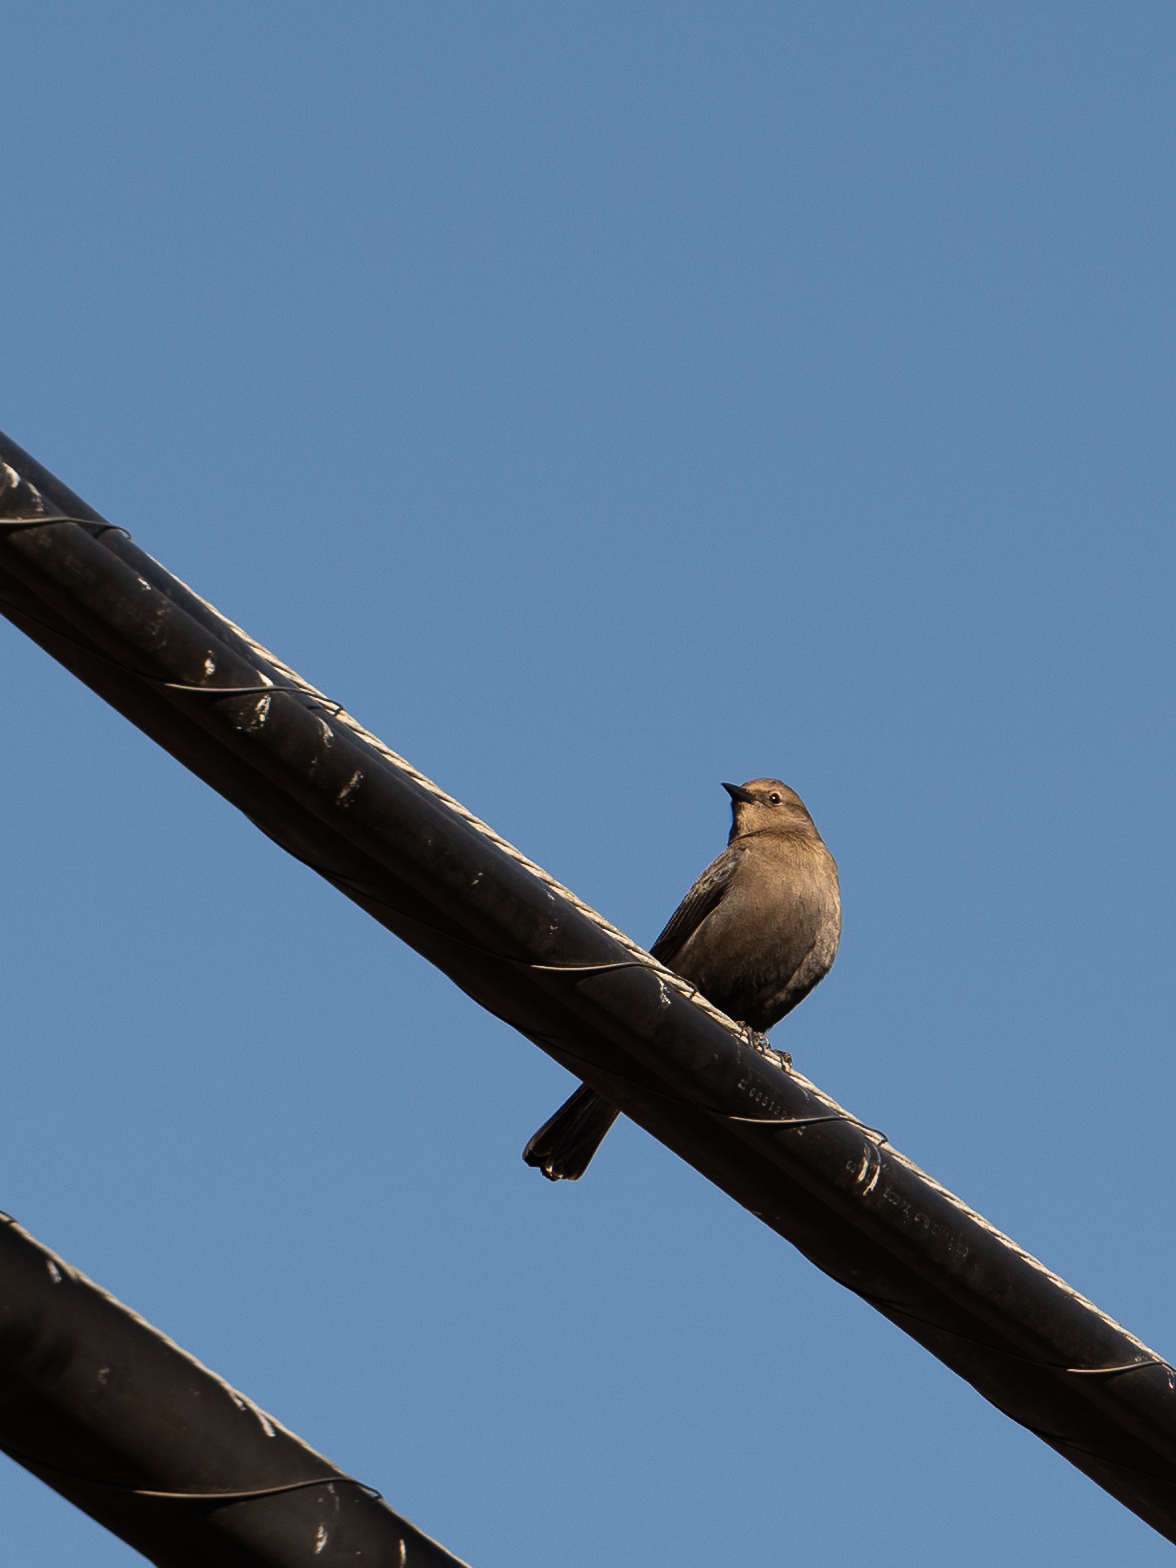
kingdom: Animalia
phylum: Chordata
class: Aves
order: Passeriformes
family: Icteridae
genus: Euphagus
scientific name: Euphagus cyanocephalus
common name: Brewer's blackbird
